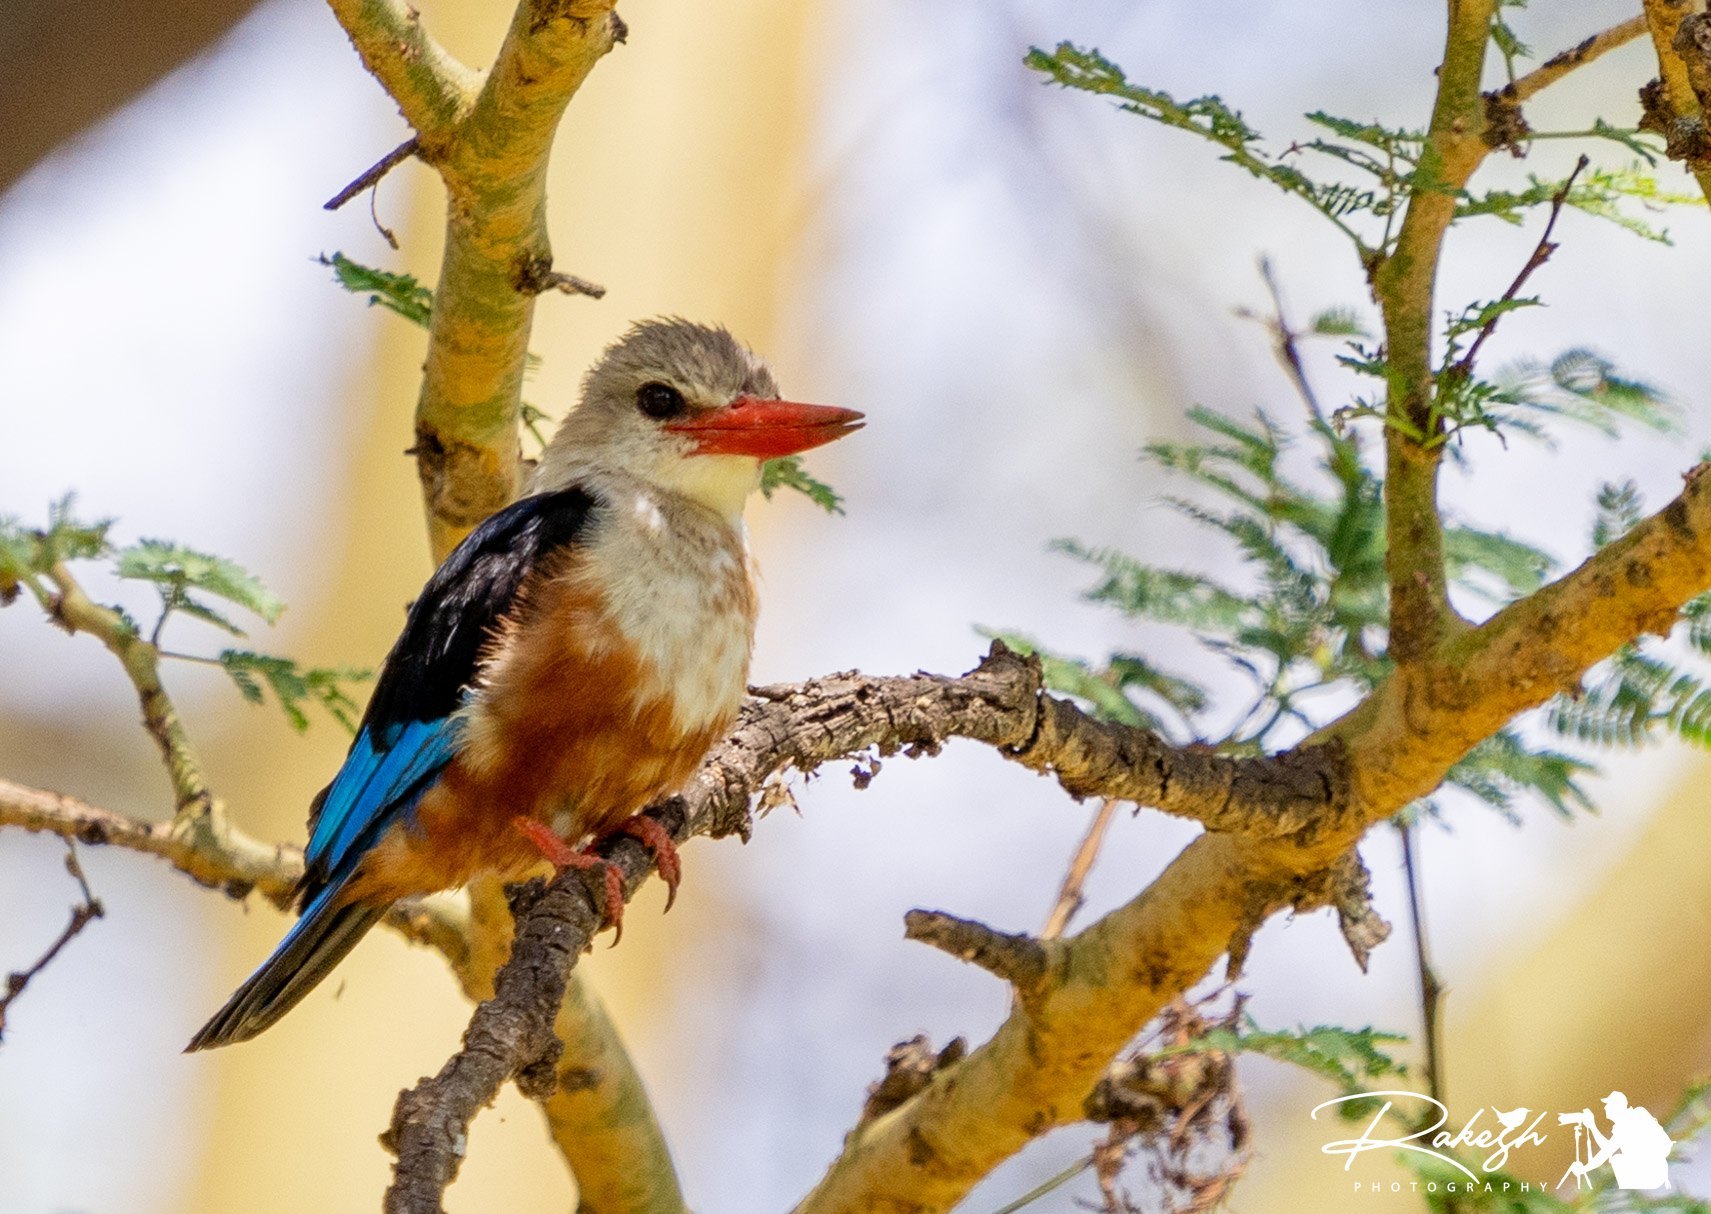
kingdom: Animalia
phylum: Chordata
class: Aves
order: Coraciiformes
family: Alcedinidae
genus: Halcyon
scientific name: Halcyon leucocephala
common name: Grey-headed kingfisher
